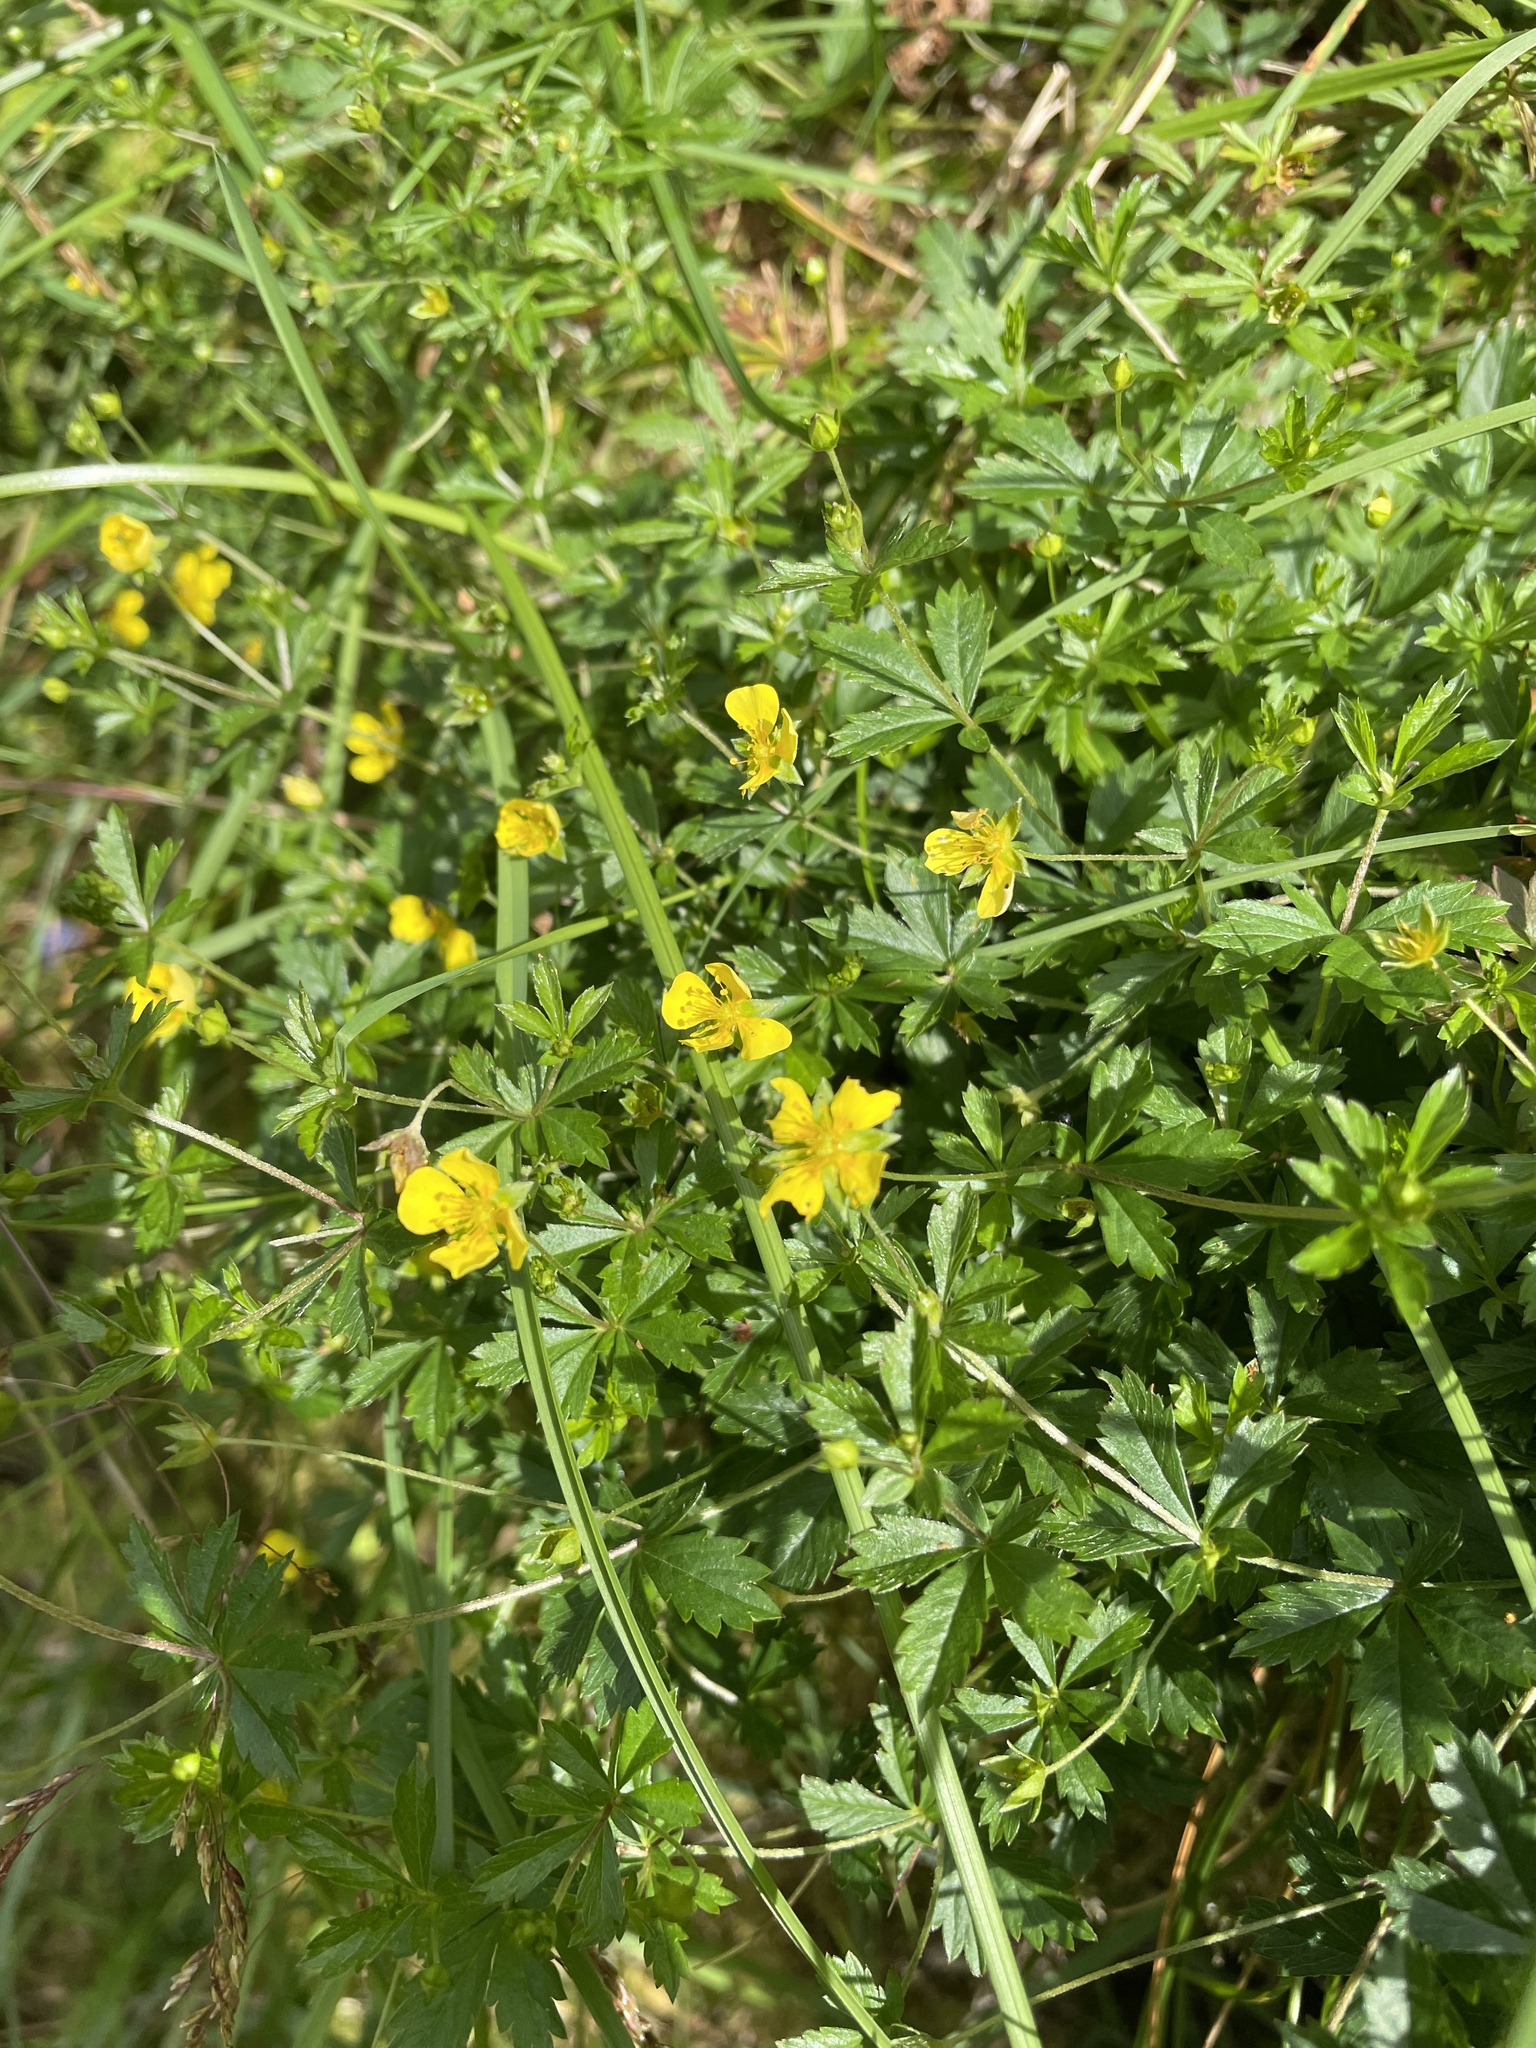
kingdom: Plantae
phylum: Tracheophyta
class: Magnoliopsida
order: Rosales
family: Rosaceae
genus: Potentilla
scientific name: Potentilla erecta
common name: Tormentil
